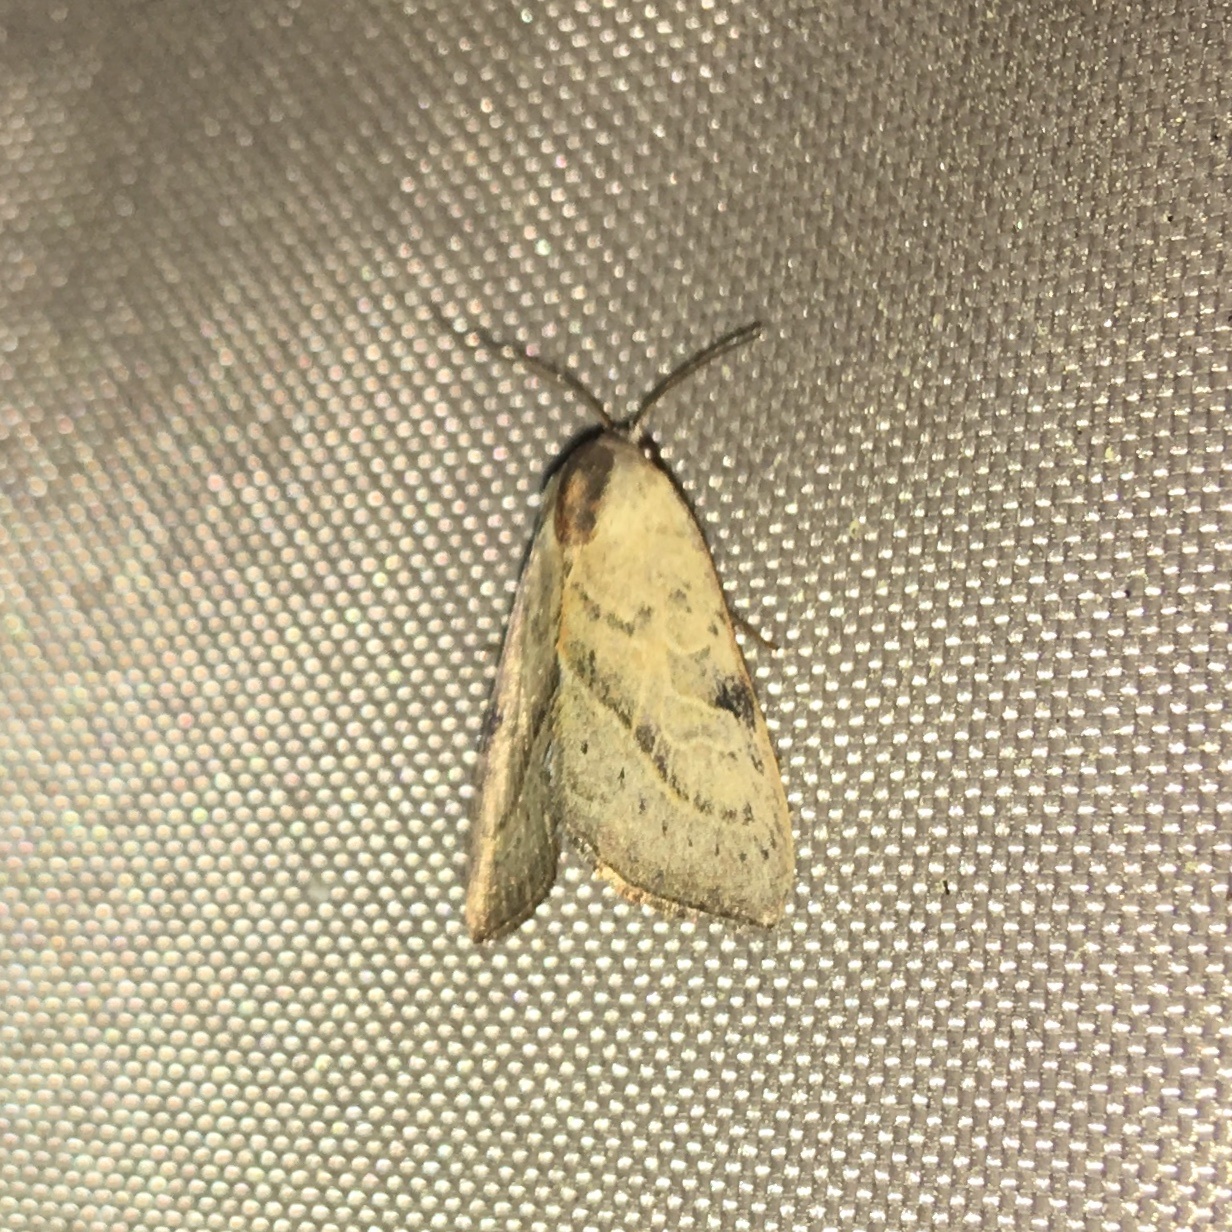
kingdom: Animalia
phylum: Arthropoda
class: Insecta
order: Lepidoptera
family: Noctuidae
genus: Galgula
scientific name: Galgula partita
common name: Wedgeling
